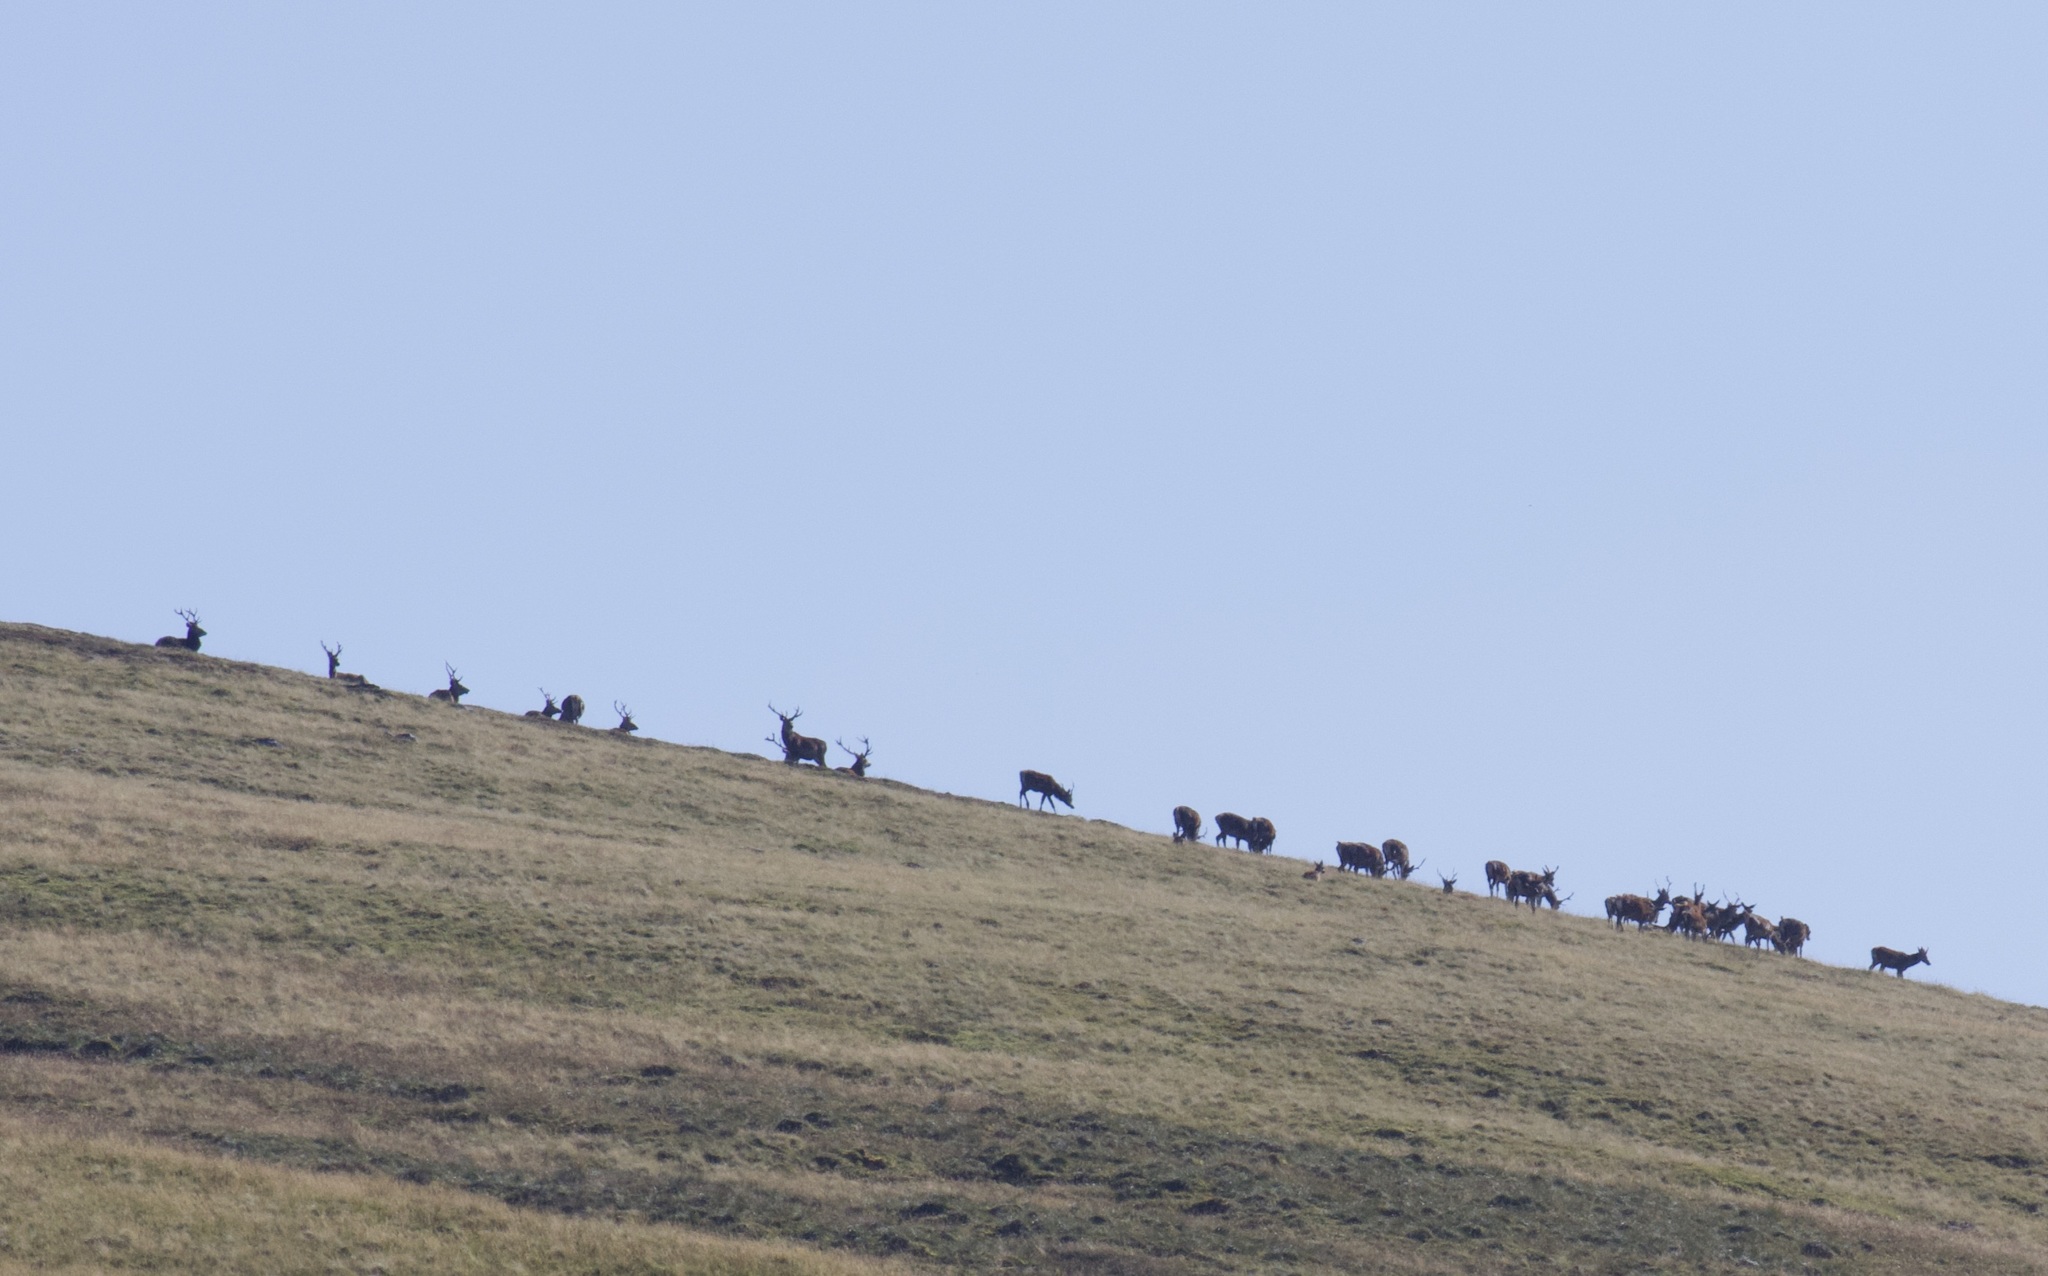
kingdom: Animalia
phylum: Chordata
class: Mammalia
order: Artiodactyla
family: Cervidae
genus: Cervus
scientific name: Cervus elaphus
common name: Red deer
